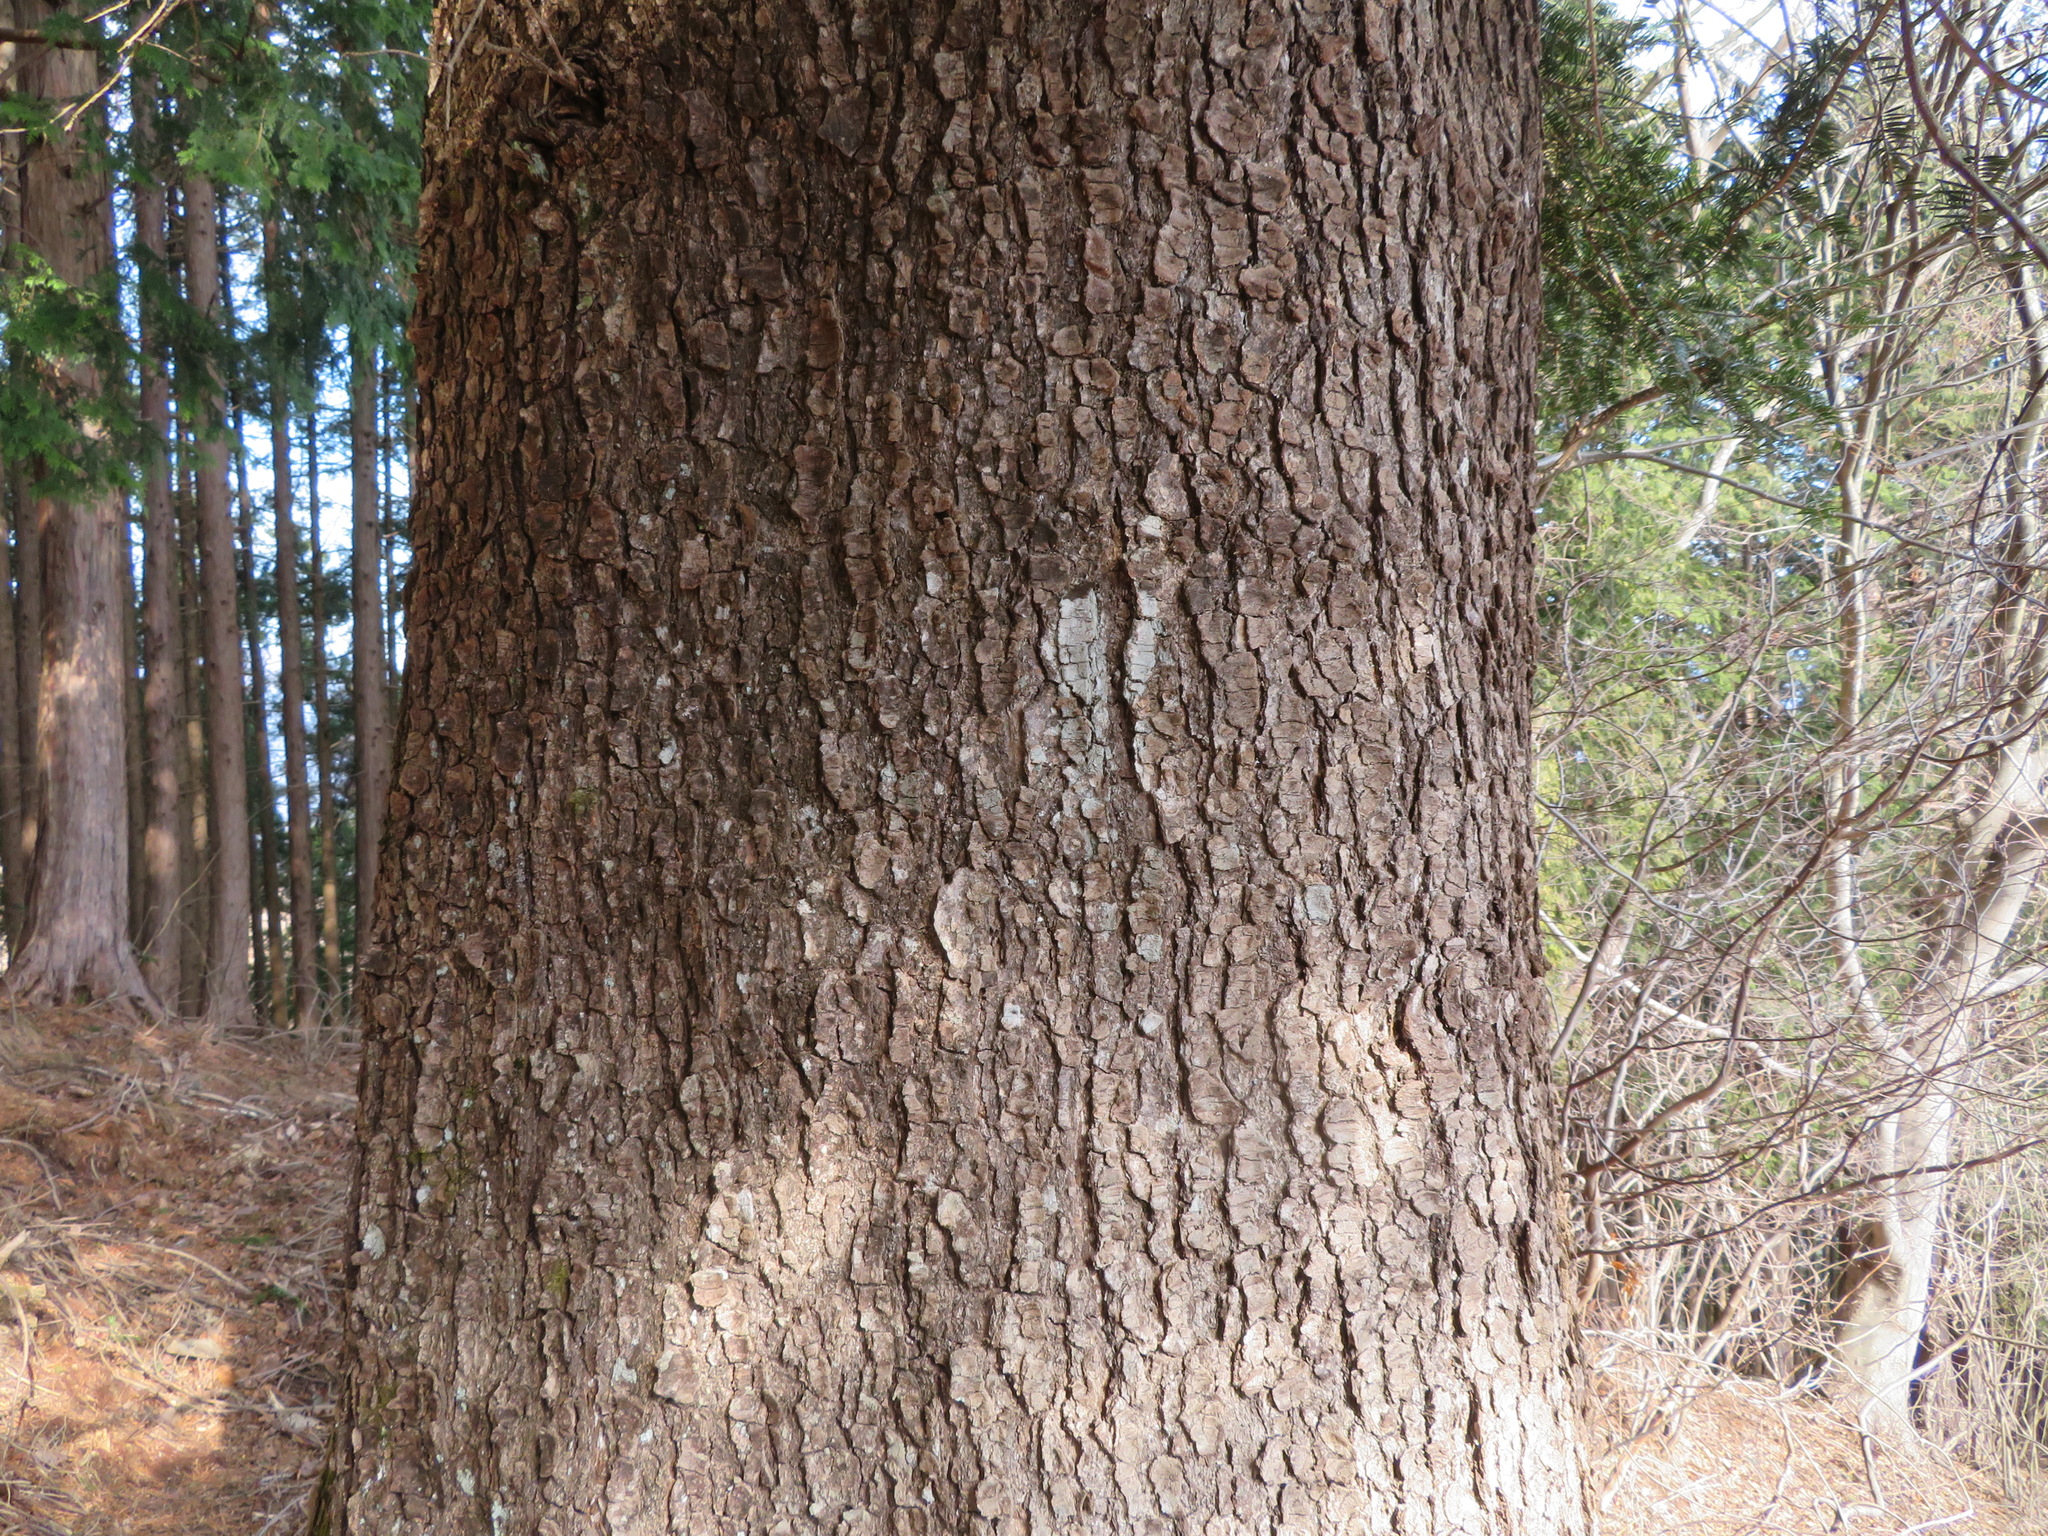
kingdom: Plantae
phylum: Tracheophyta
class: Pinopsida
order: Pinales
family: Pinaceae
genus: Abies
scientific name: Abies firma
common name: Momi fir
